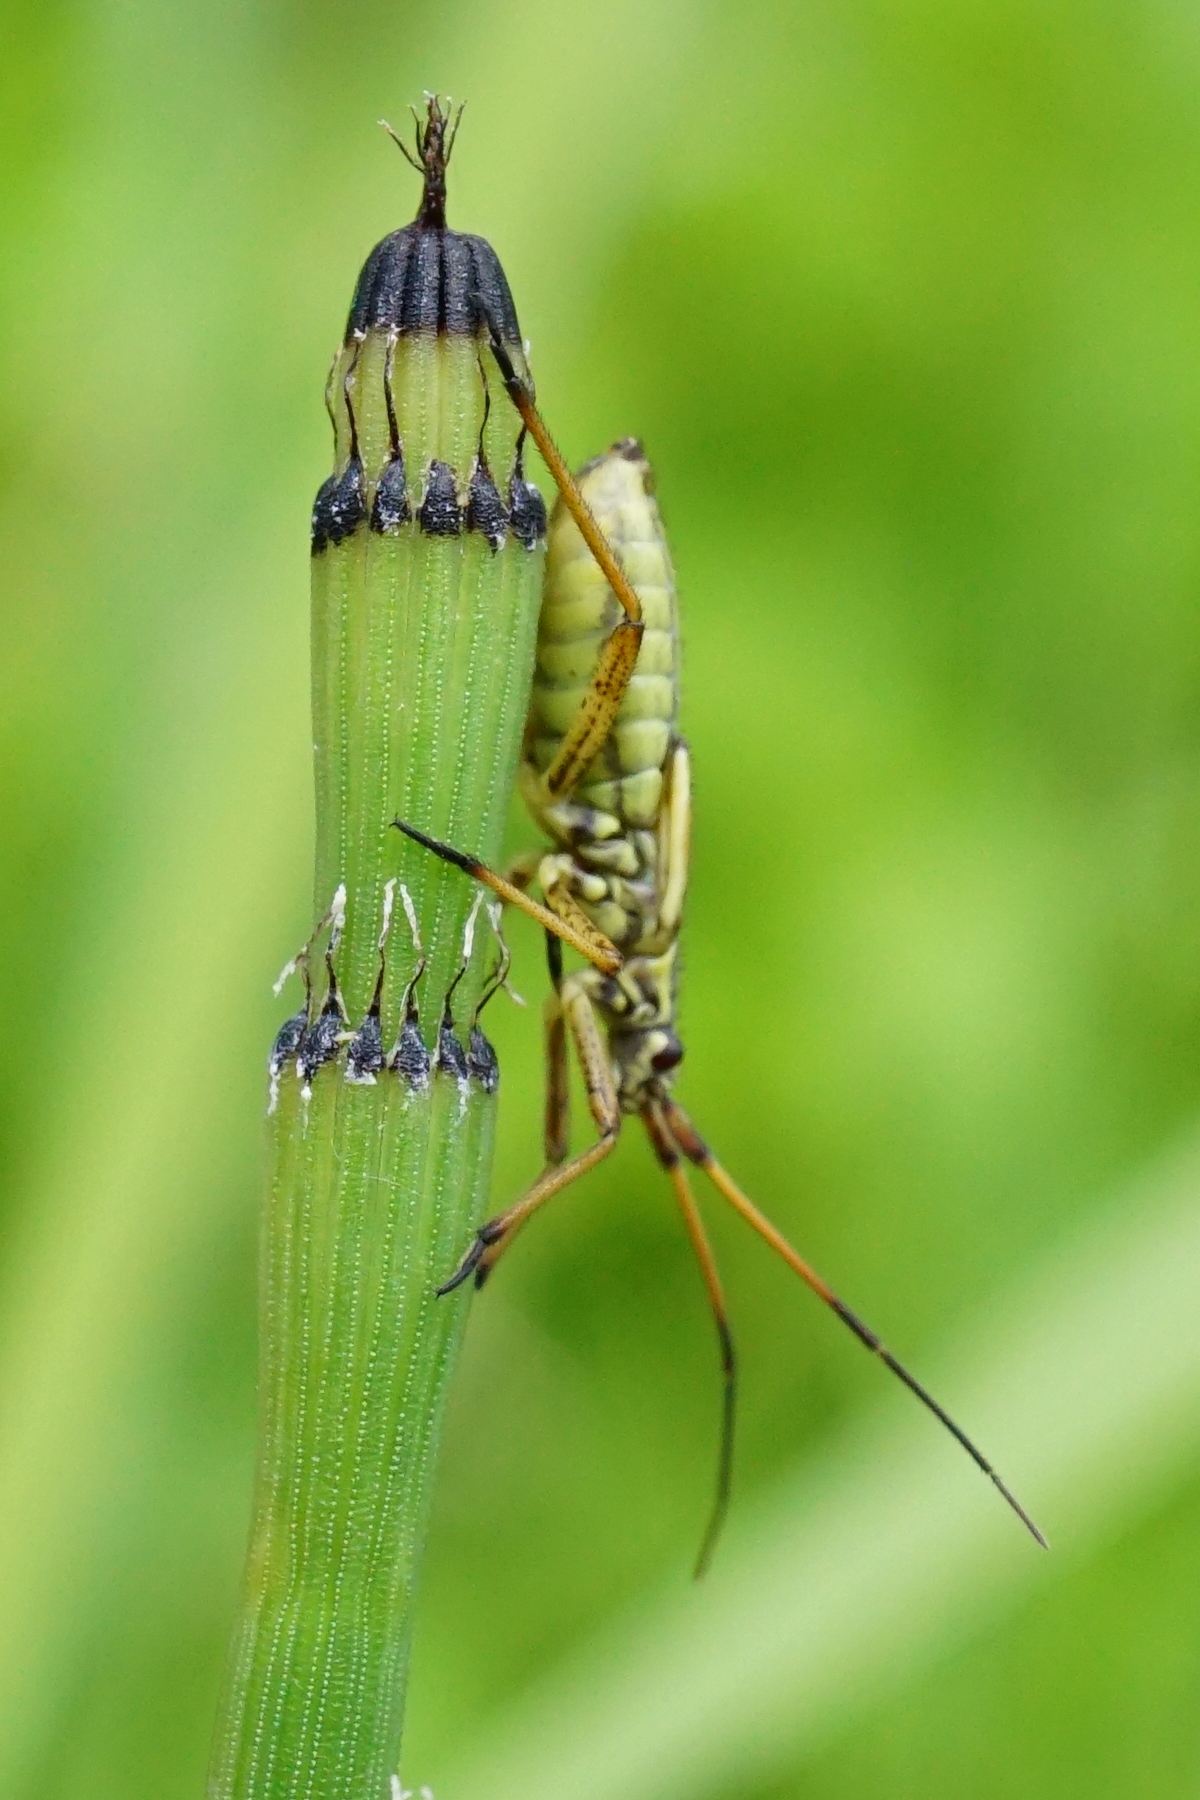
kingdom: Animalia
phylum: Arthropoda
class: Insecta
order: Hemiptera
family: Miridae
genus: Leptopterna
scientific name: Leptopterna dolabrata
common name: Meadow plant bug
